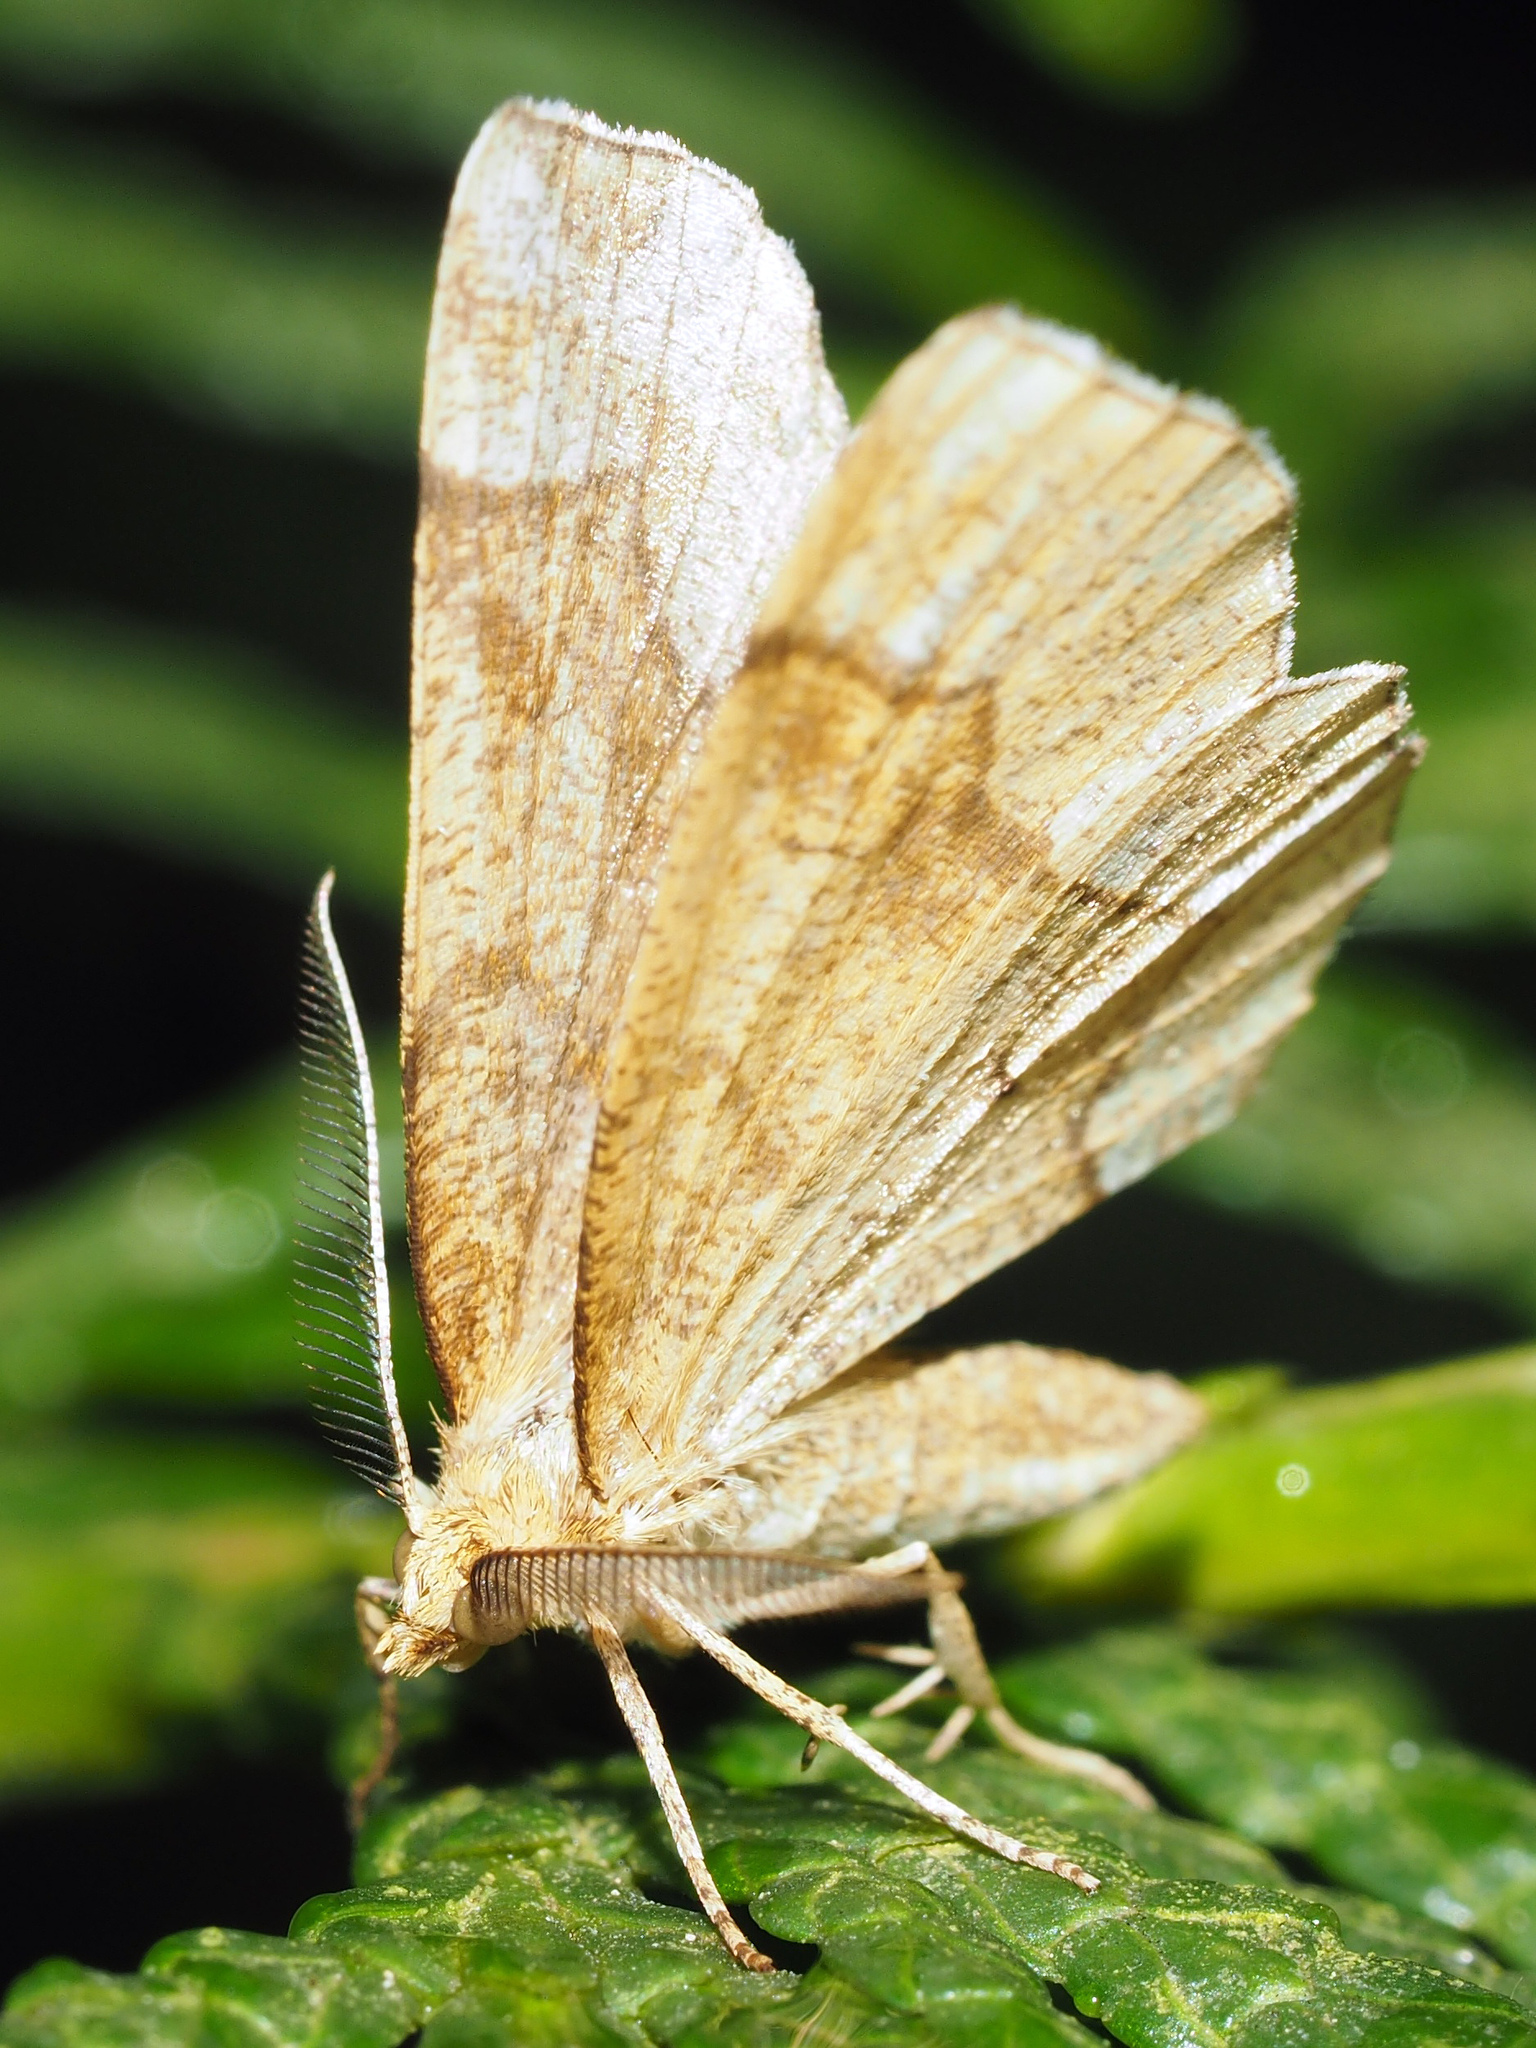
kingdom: Animalia
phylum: Arthropoda
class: Insecta
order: Lepidoptera
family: Geometridae
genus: Cepphis
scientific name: Cepphis advenaria
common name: Little thorn
